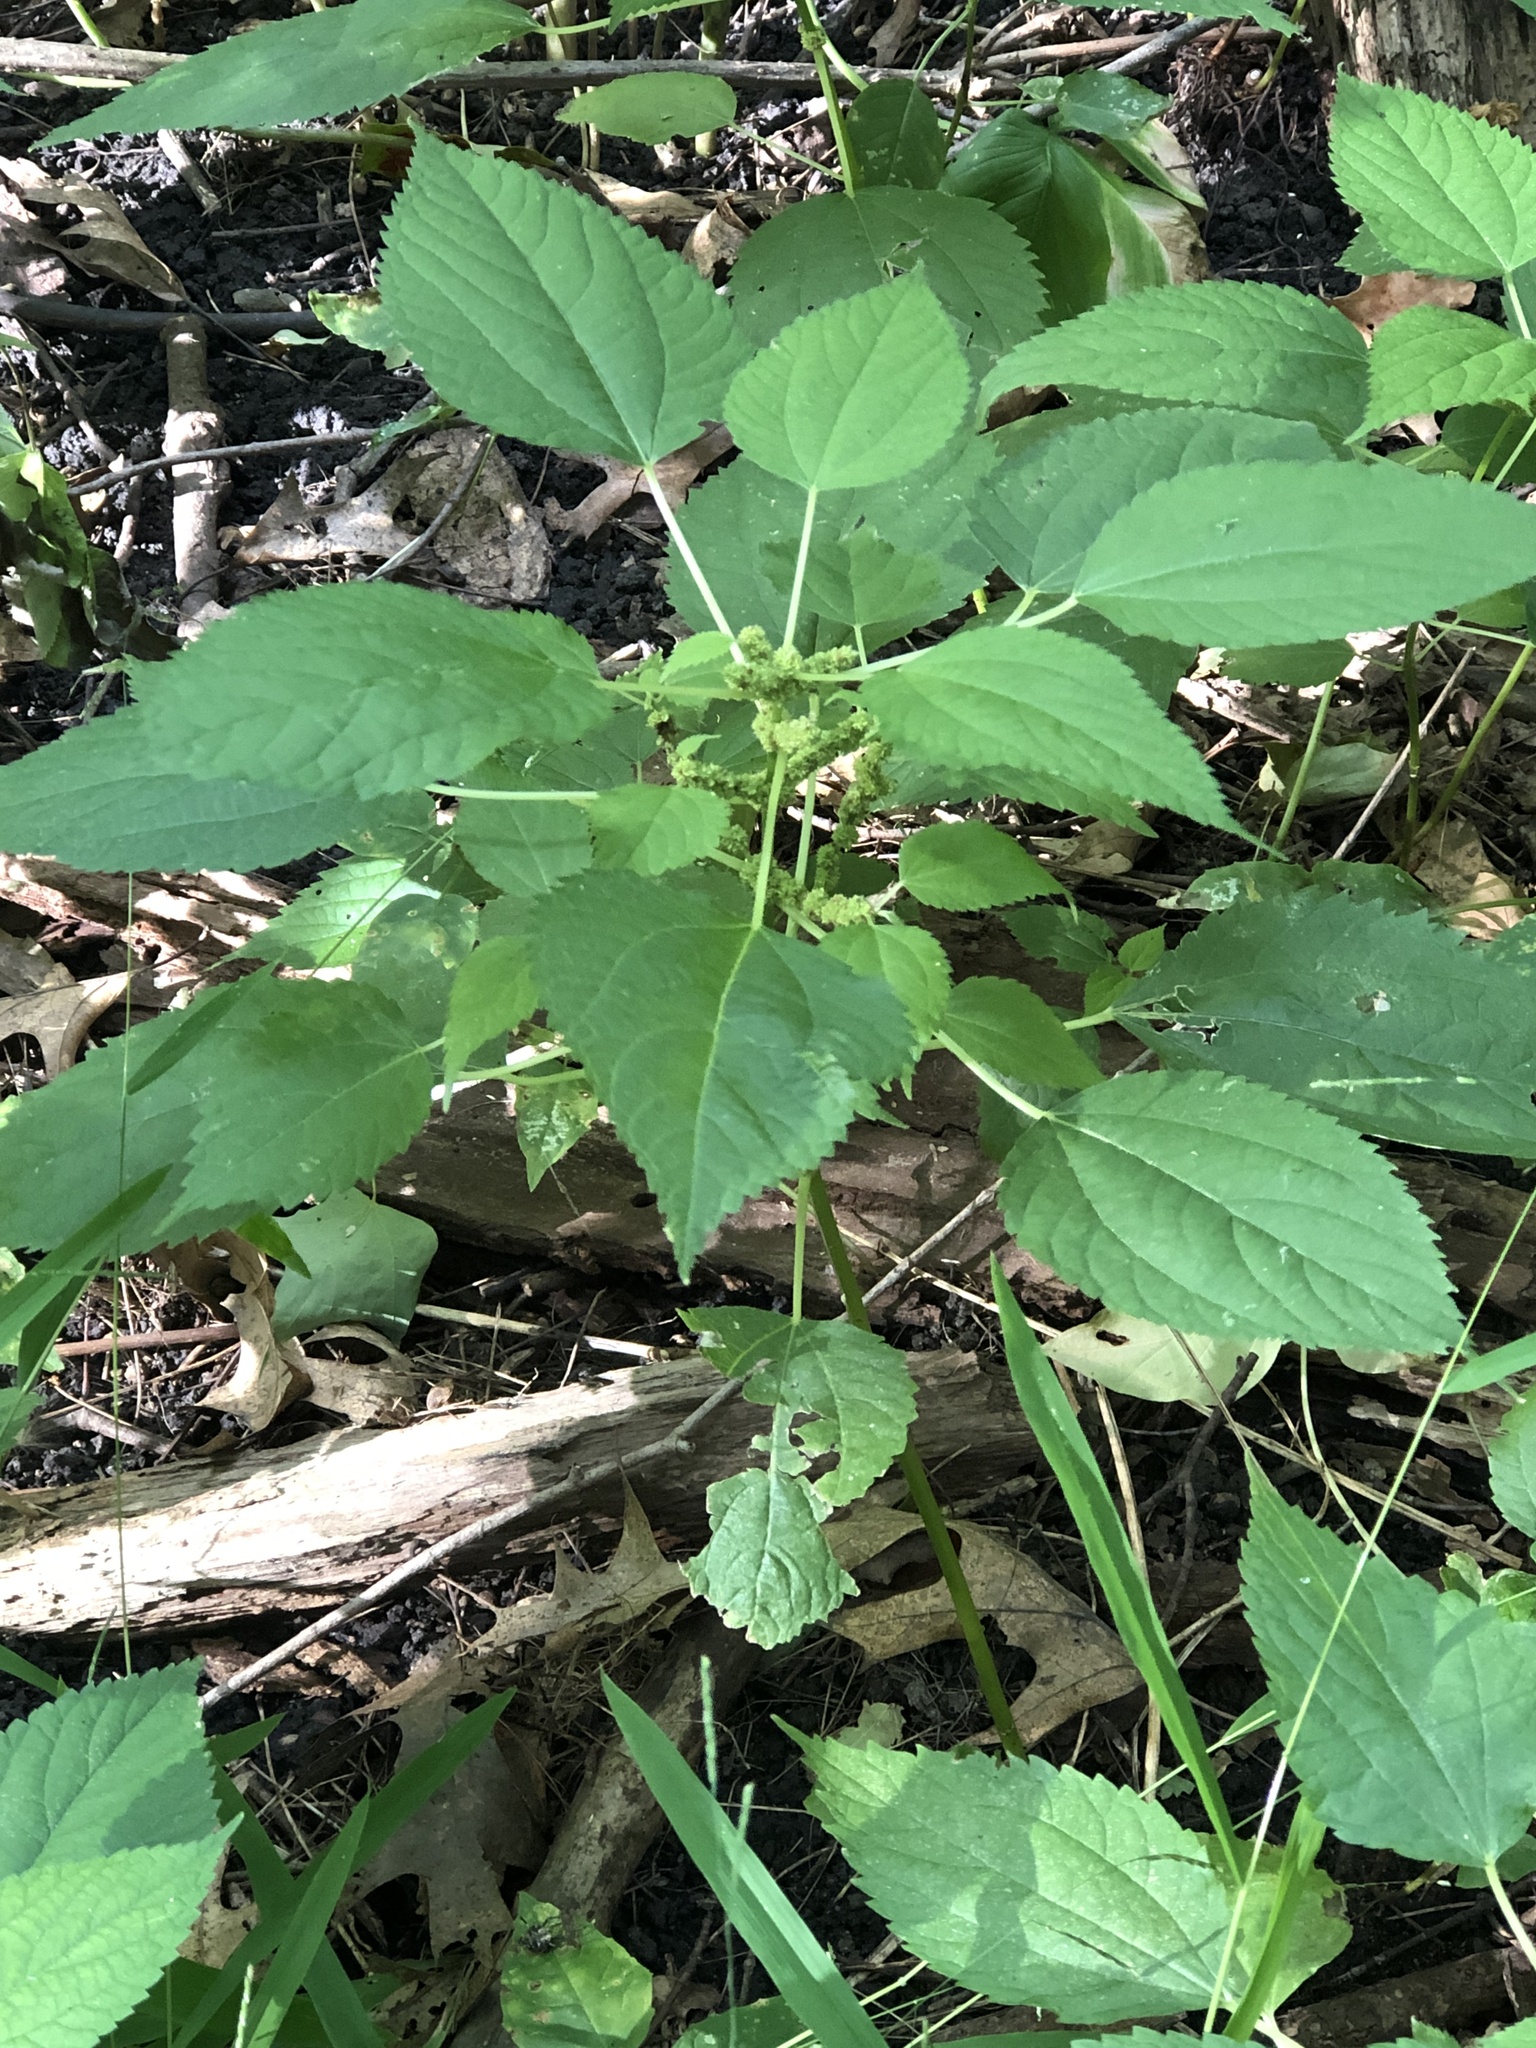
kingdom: Plantae
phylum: Tracheophyta
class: Magnoliopsida
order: Rosales
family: Urticaceae
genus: Boehmeria
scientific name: Boehmeria cylindrica
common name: Bog-hemp
